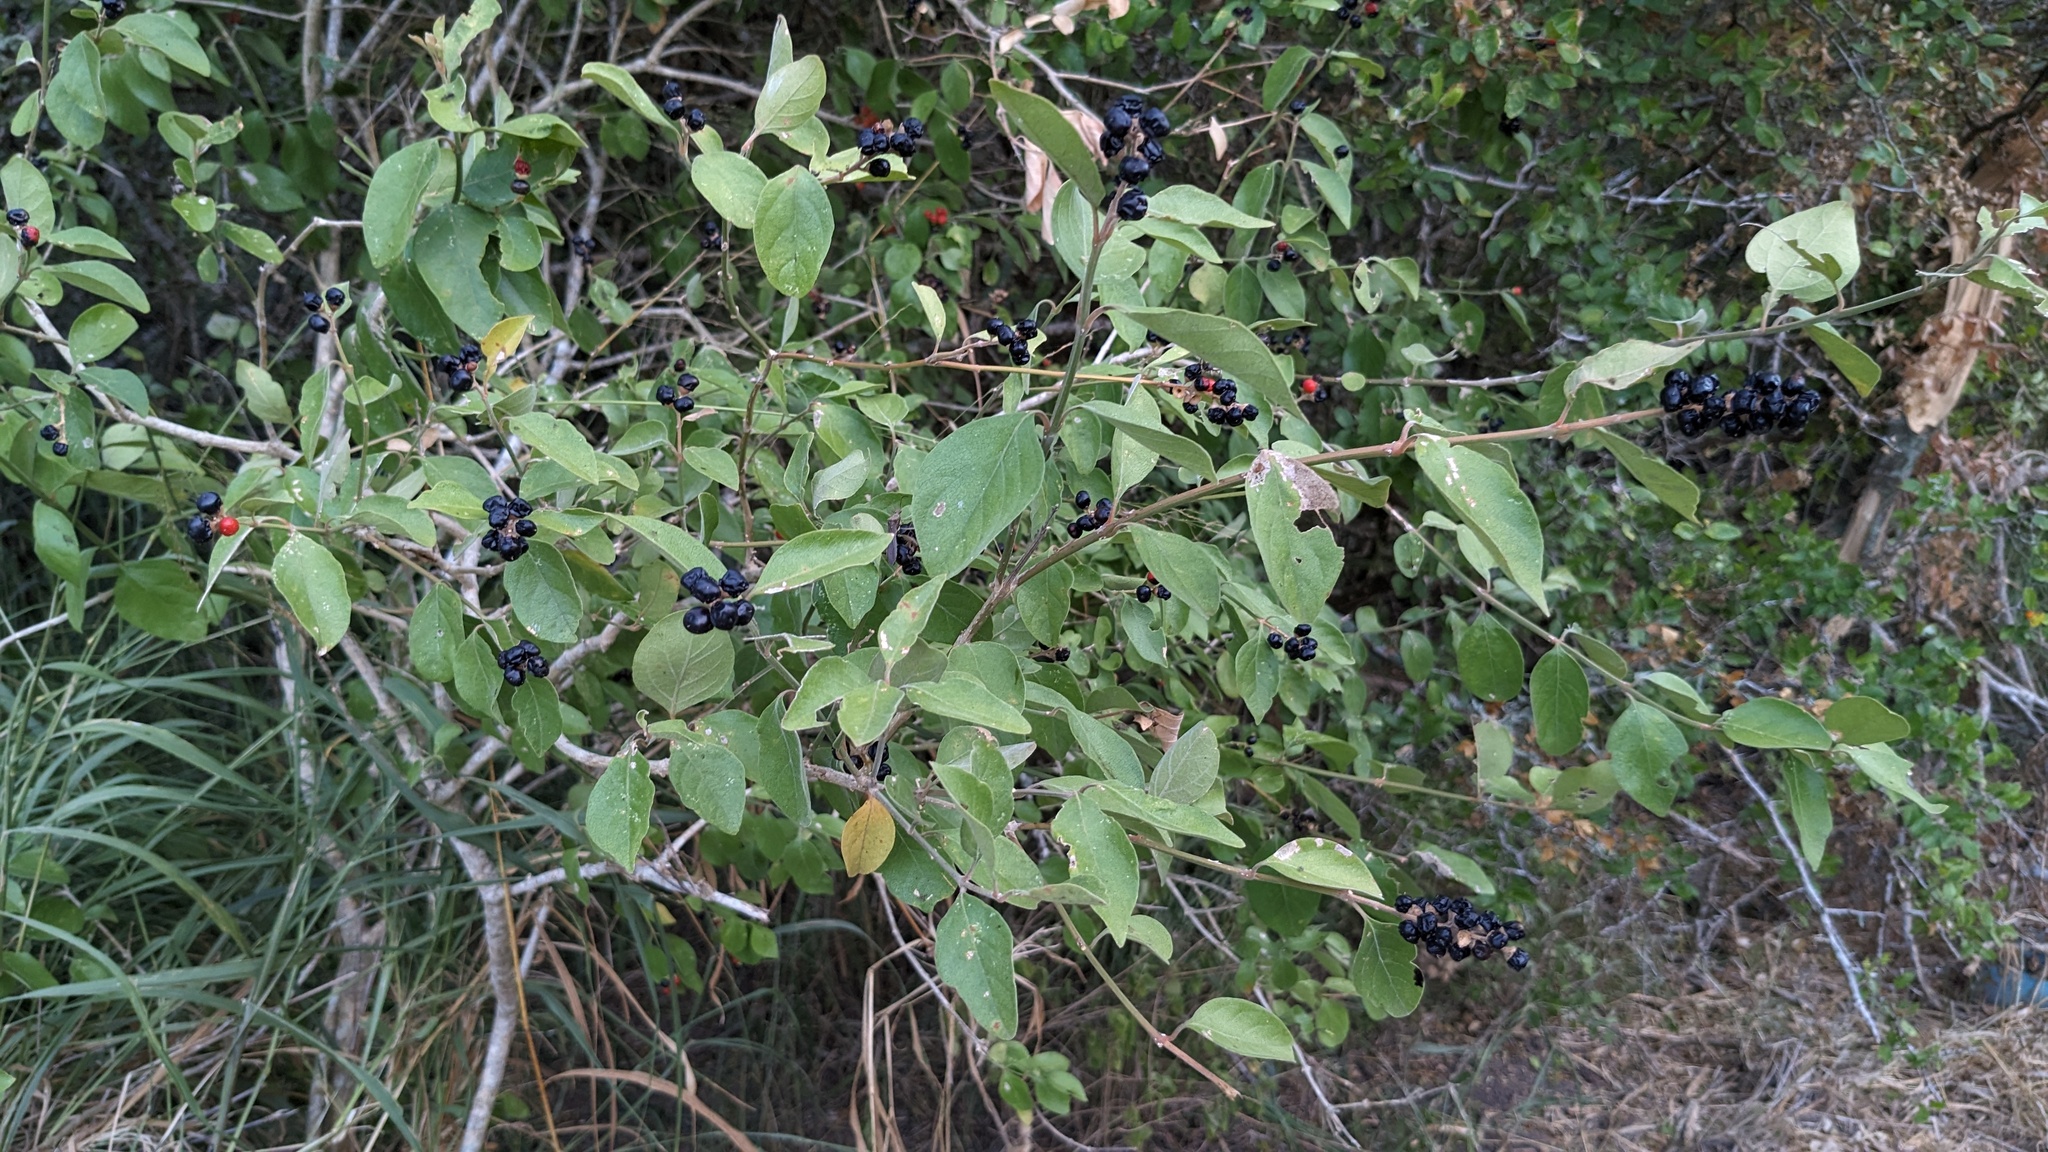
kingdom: Plantae
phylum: Tracheophyta
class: Magnoliopsida
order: Lamiales
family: Verbenaceae
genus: Citharexylum
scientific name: Citharexylum berlandieri
